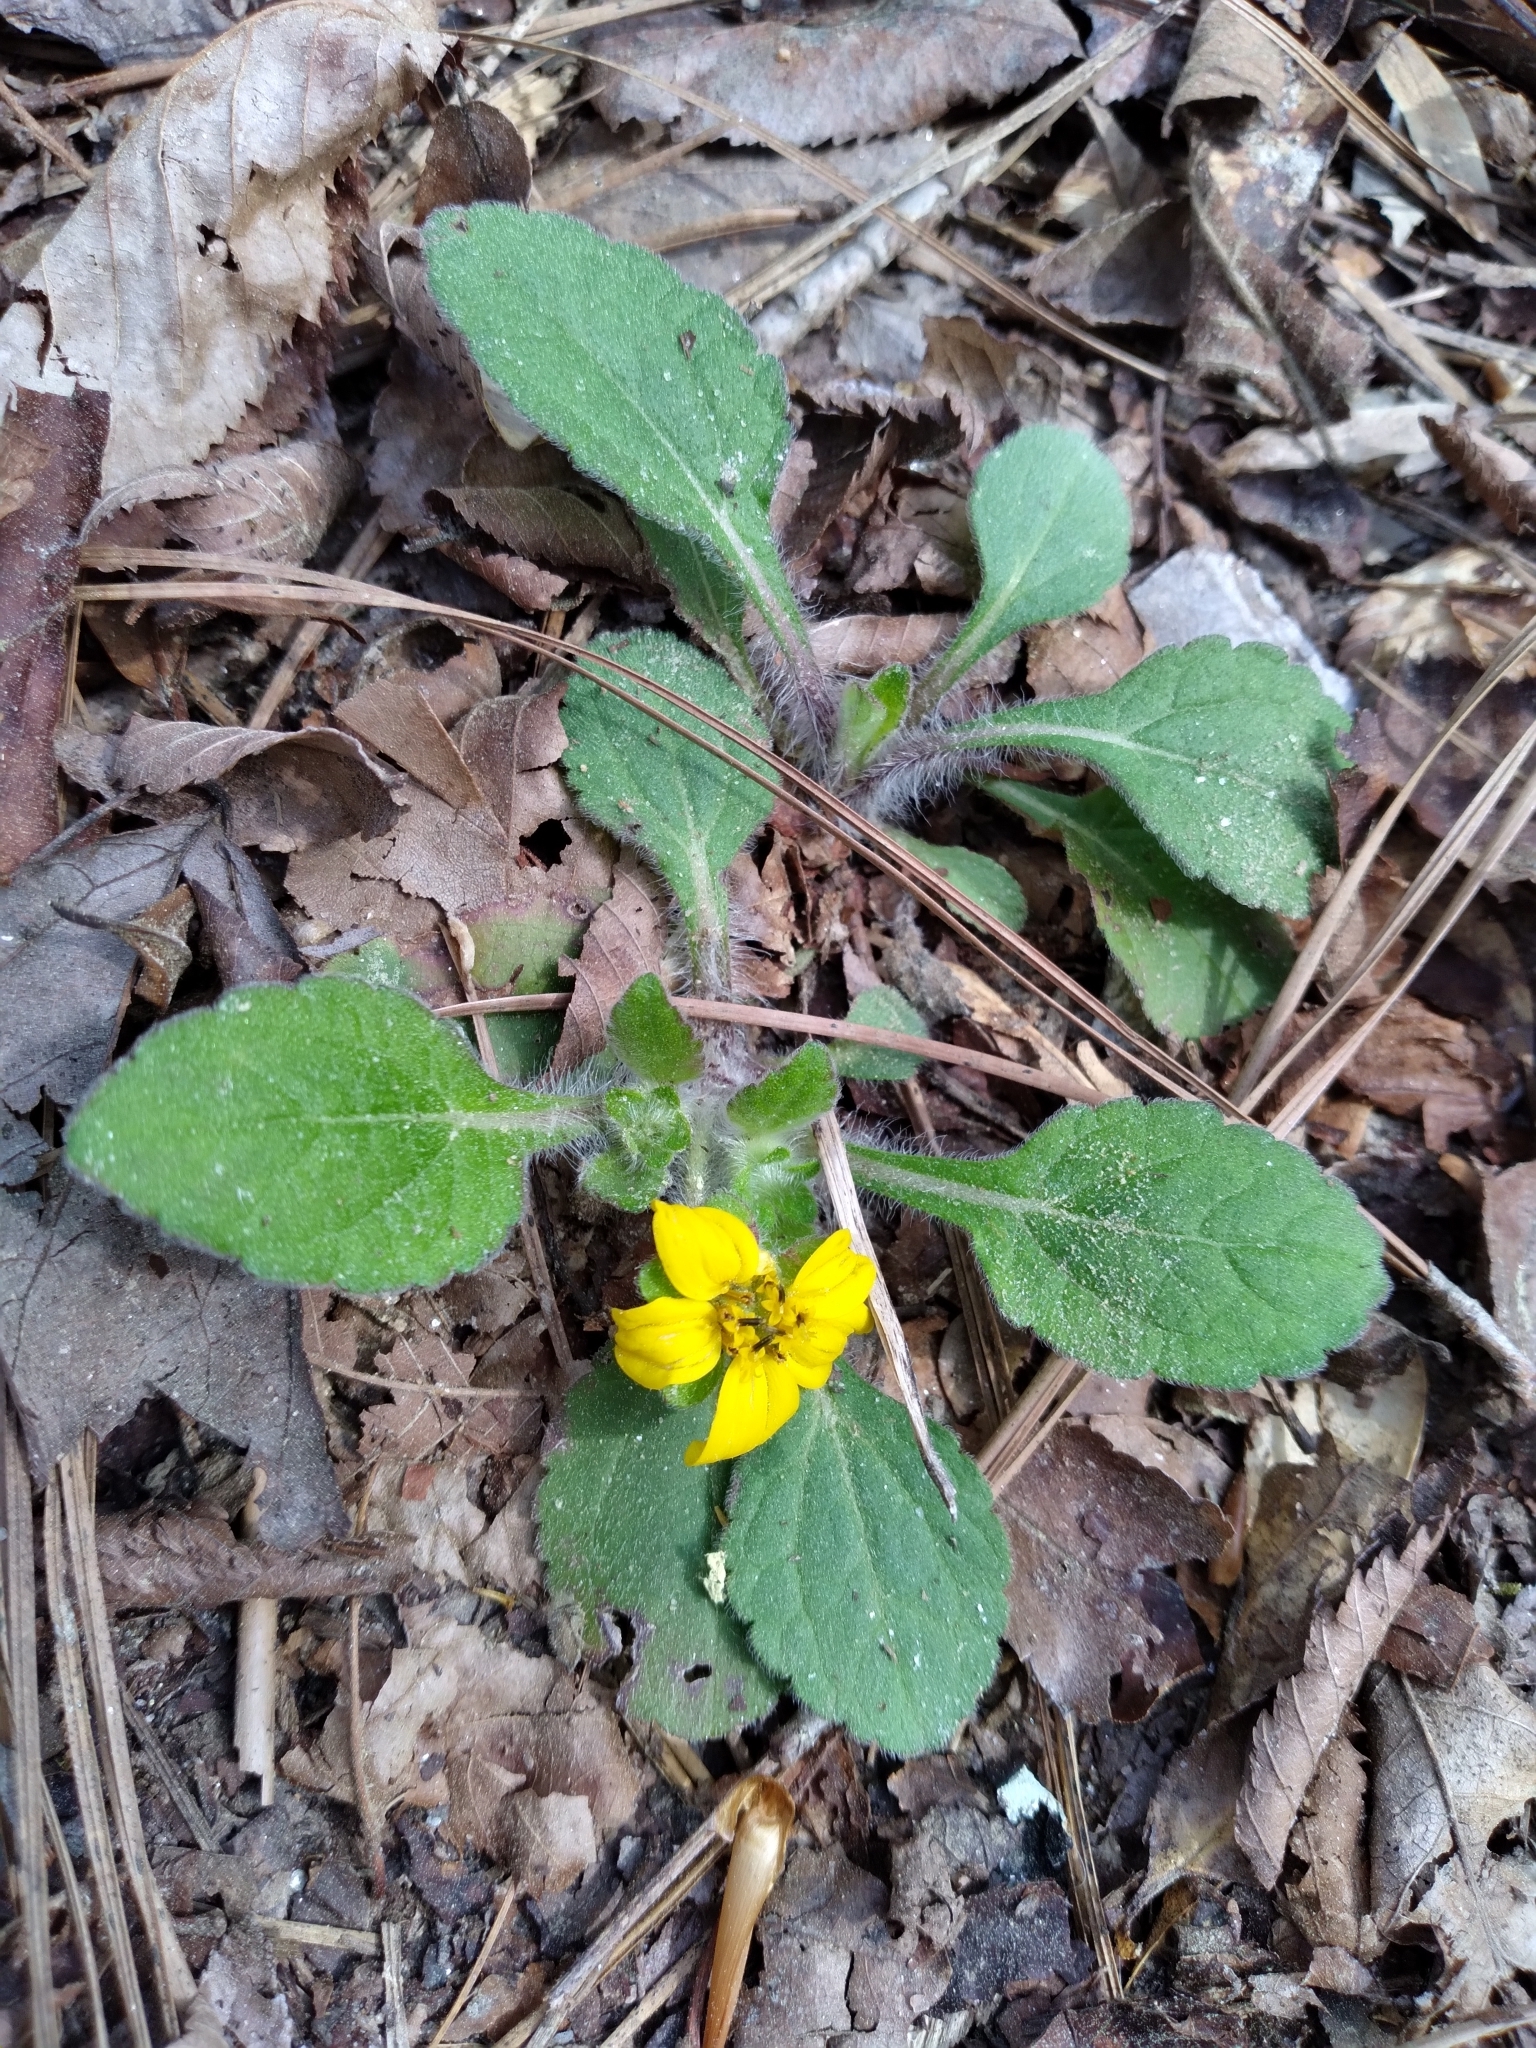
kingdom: Plantae
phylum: Tracheophyta
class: Magnoliopsida
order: Asterales
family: Asteraceae
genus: Chrysogonum
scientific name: Chrysogonum virginianum
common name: Golden-knee
